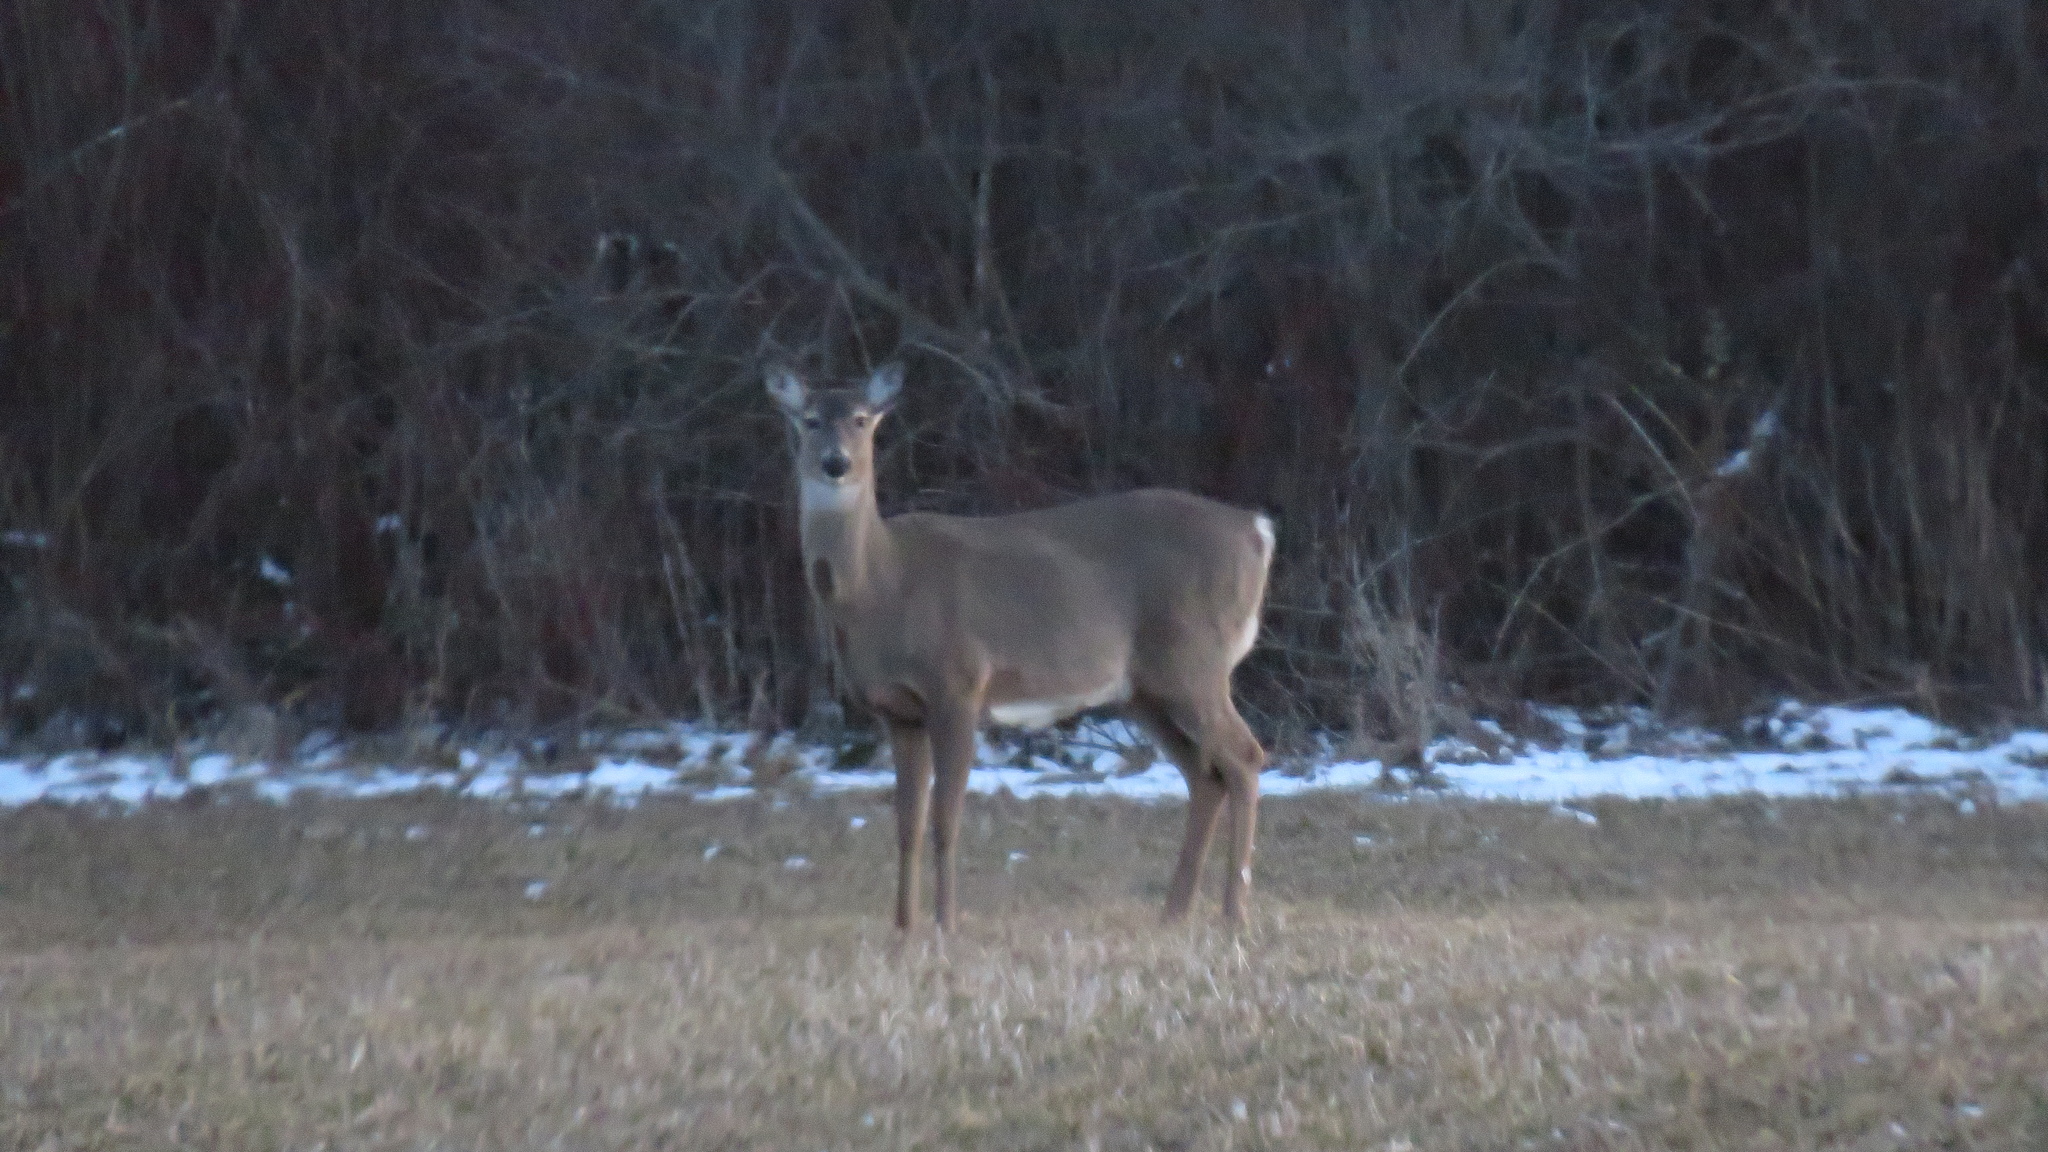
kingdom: Animalia
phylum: Chordata
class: Mammalia
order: Artiodactyla
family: Cervidae
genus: Odocoileus
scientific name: Odocoileus virginianus
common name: White-tailed deer
